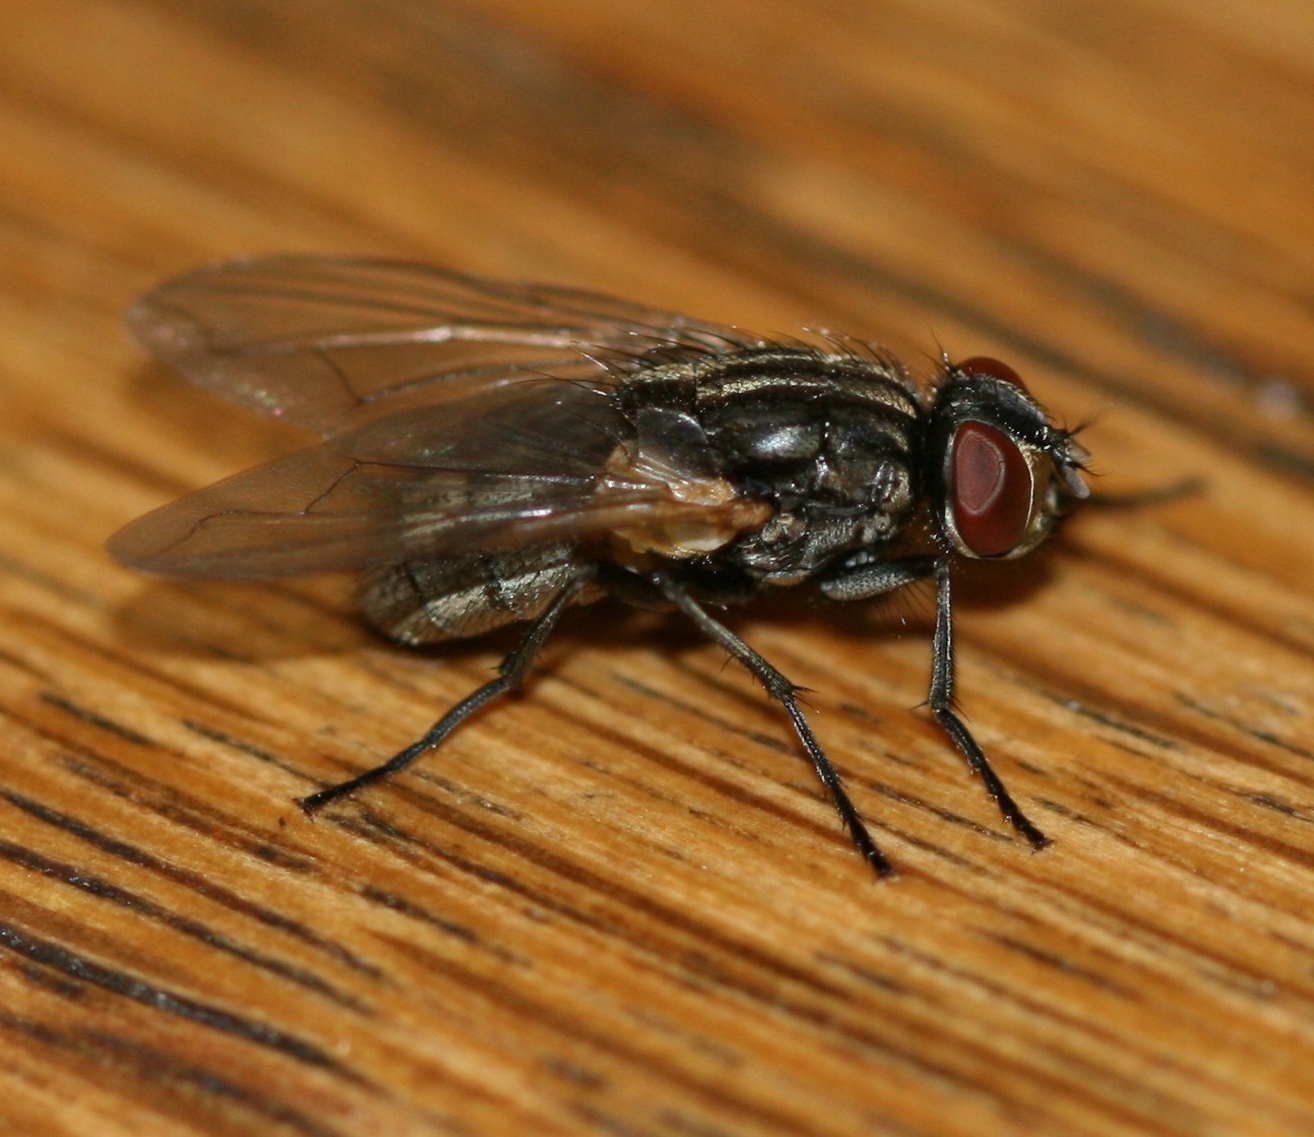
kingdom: Animalia
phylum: Arthropoda
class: Insecta
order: Diptera
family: Muscidae
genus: Musca
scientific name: Musca domestica
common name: House fly
